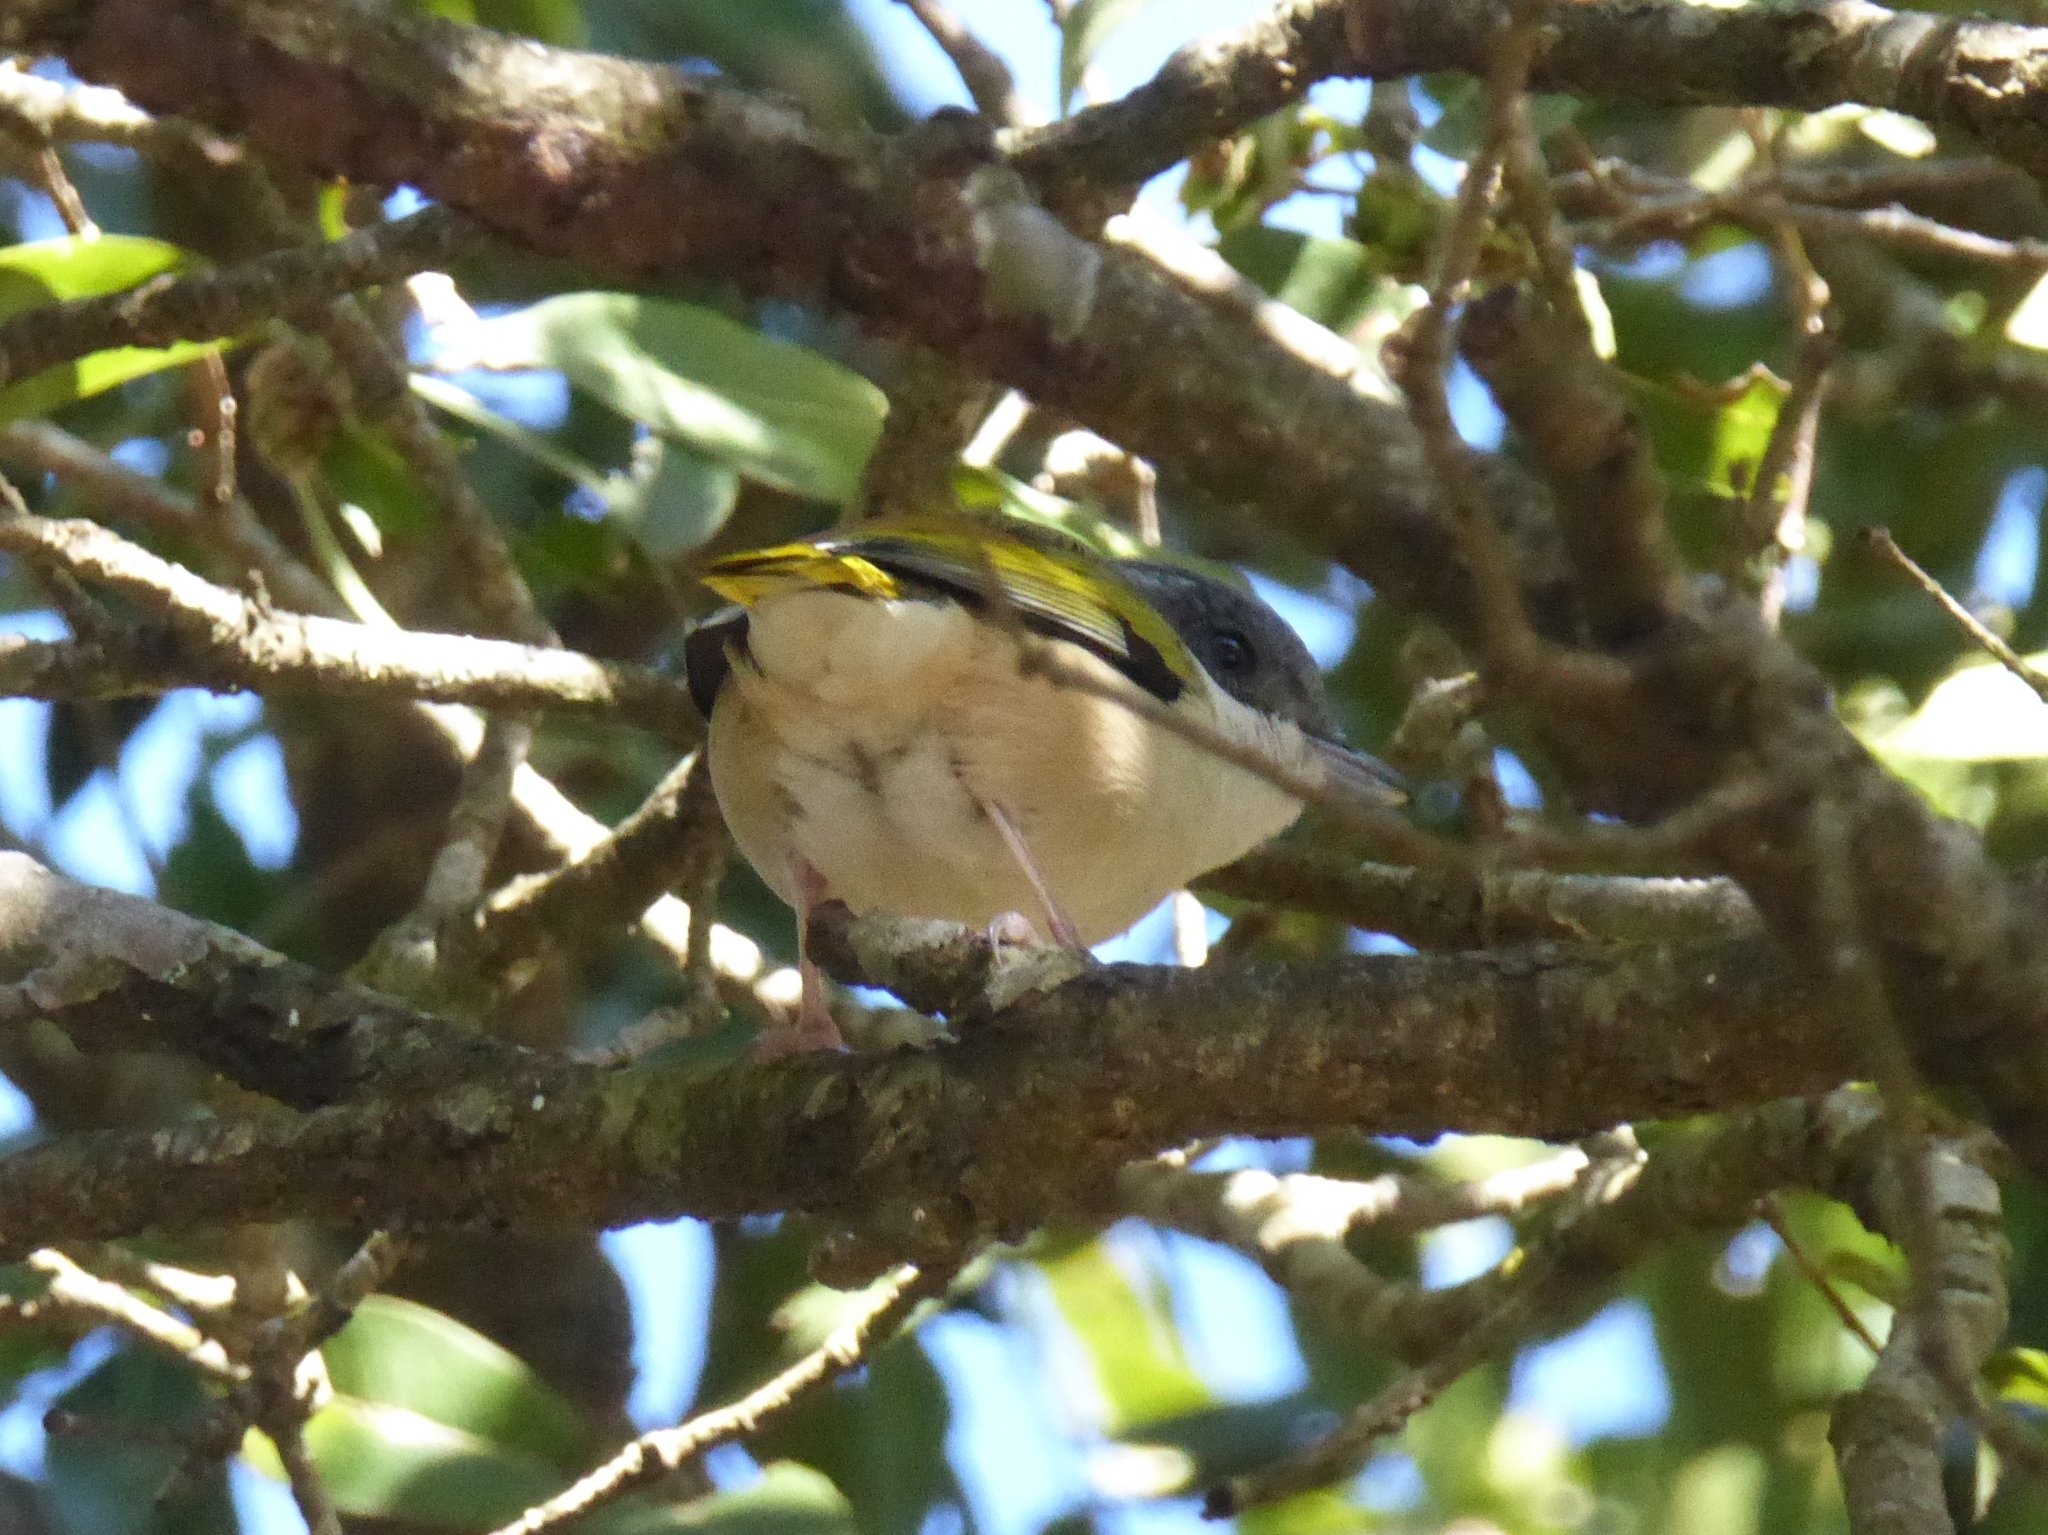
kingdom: Animalia
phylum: Chordata
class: Aves
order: Passeriformes
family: Vireonidae
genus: Pteruthius
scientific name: Pteruthius aeralatus
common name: Blyth's shrike-babbler
